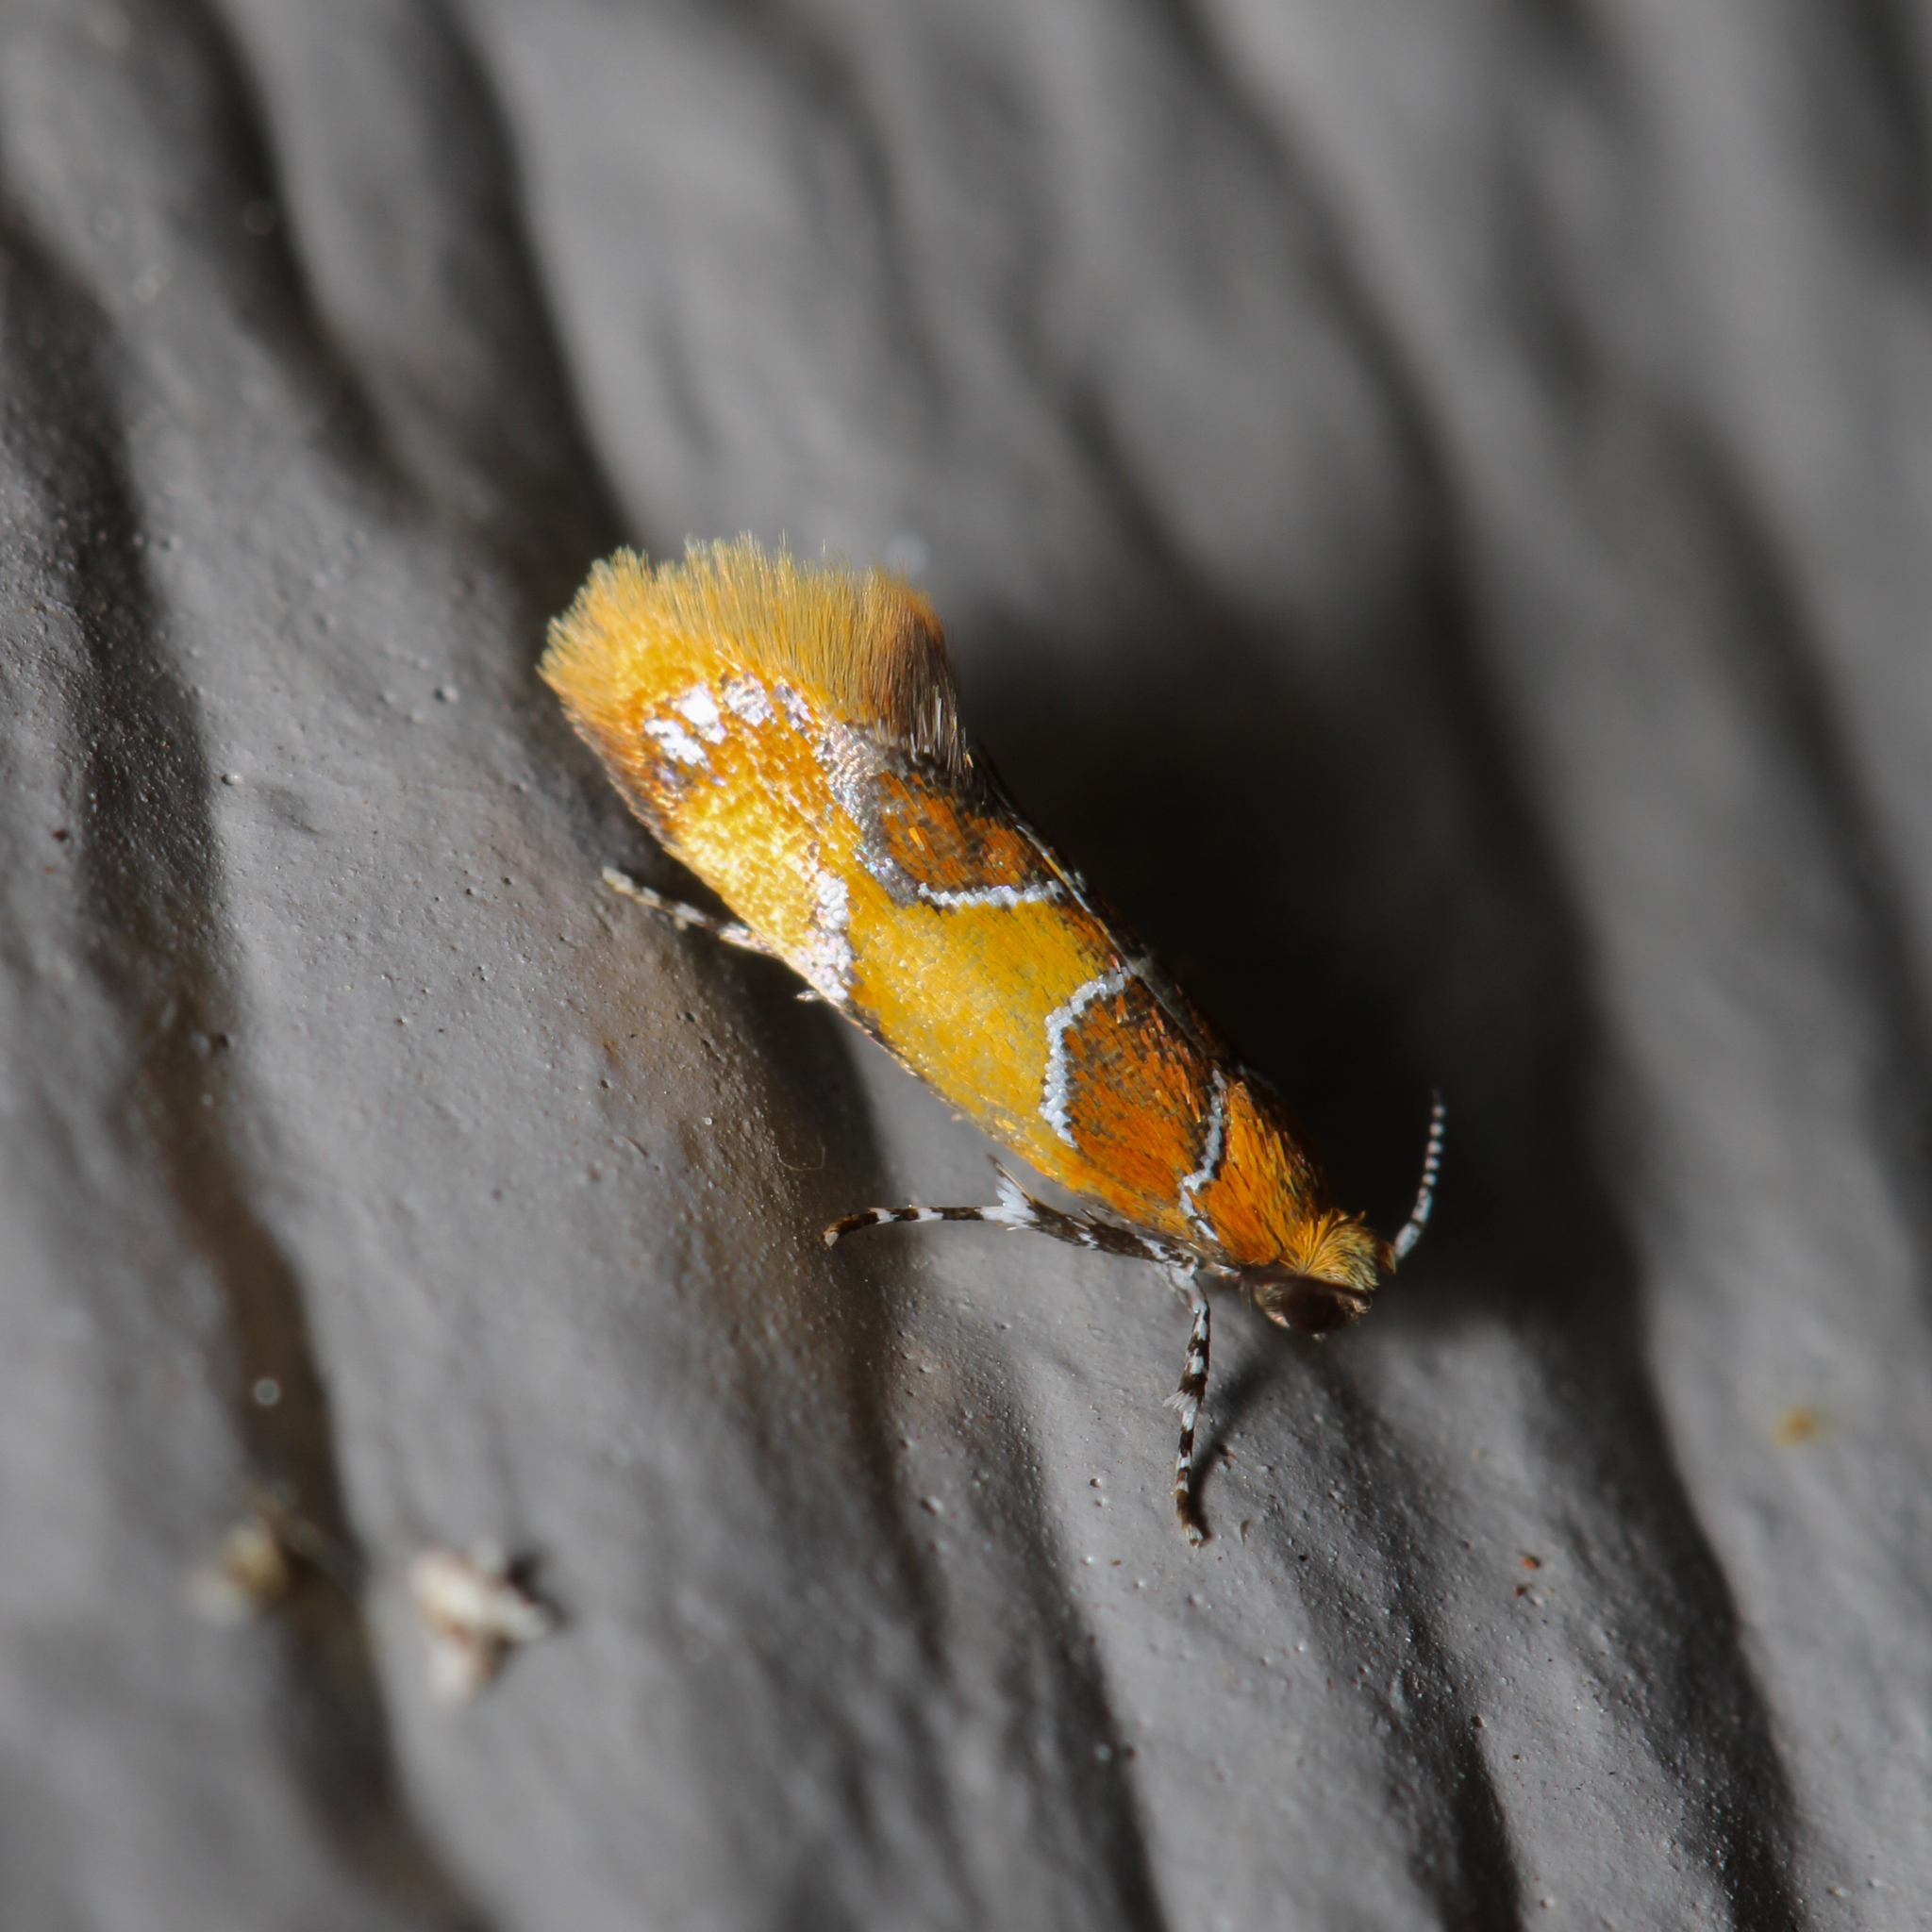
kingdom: Animalia
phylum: Arthropoda
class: Insecta
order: Lepidoptera
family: Oecophoridae
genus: Callima
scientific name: Callima argenticinctella
